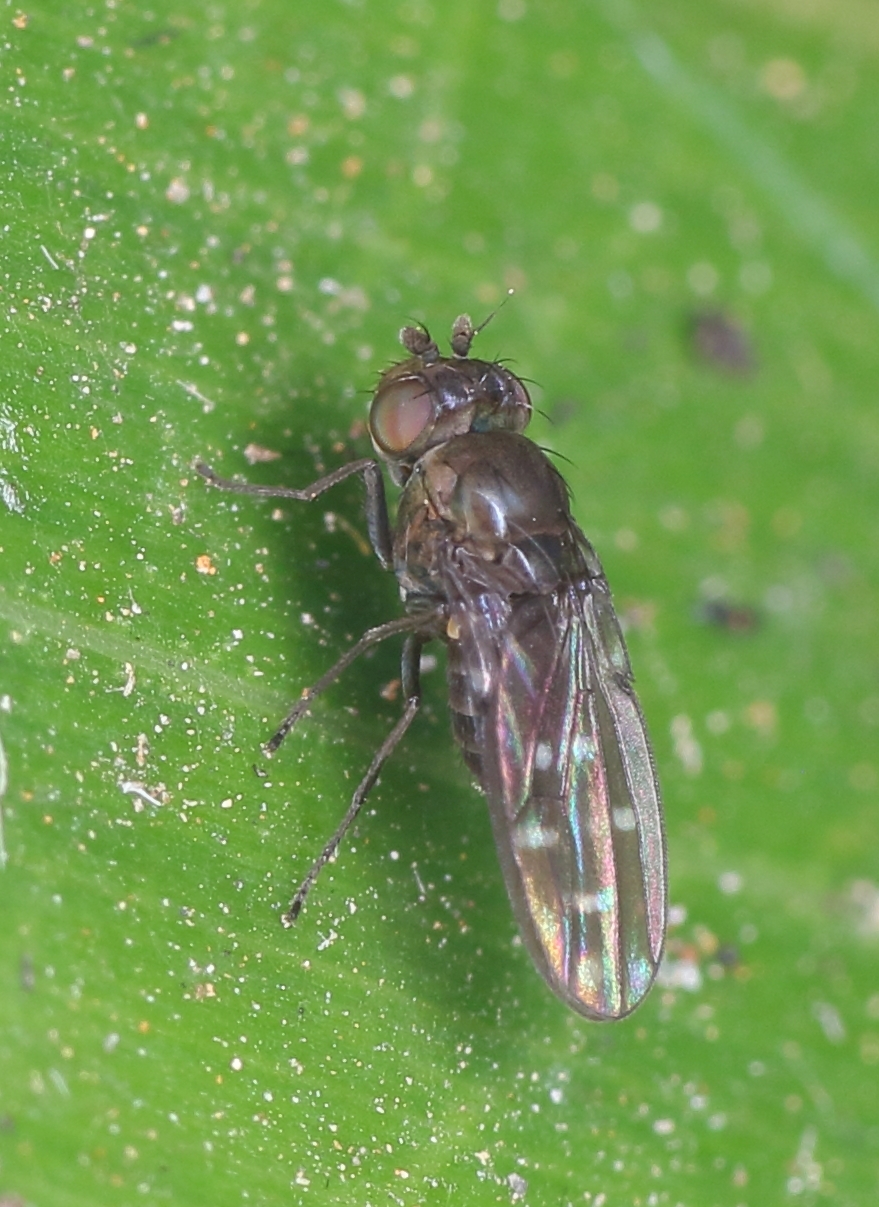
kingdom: Animalia
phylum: Arthropoda
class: Insecta
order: Diptera
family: Ephydridae
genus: Scatella
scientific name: Scatella septemfenestrata
